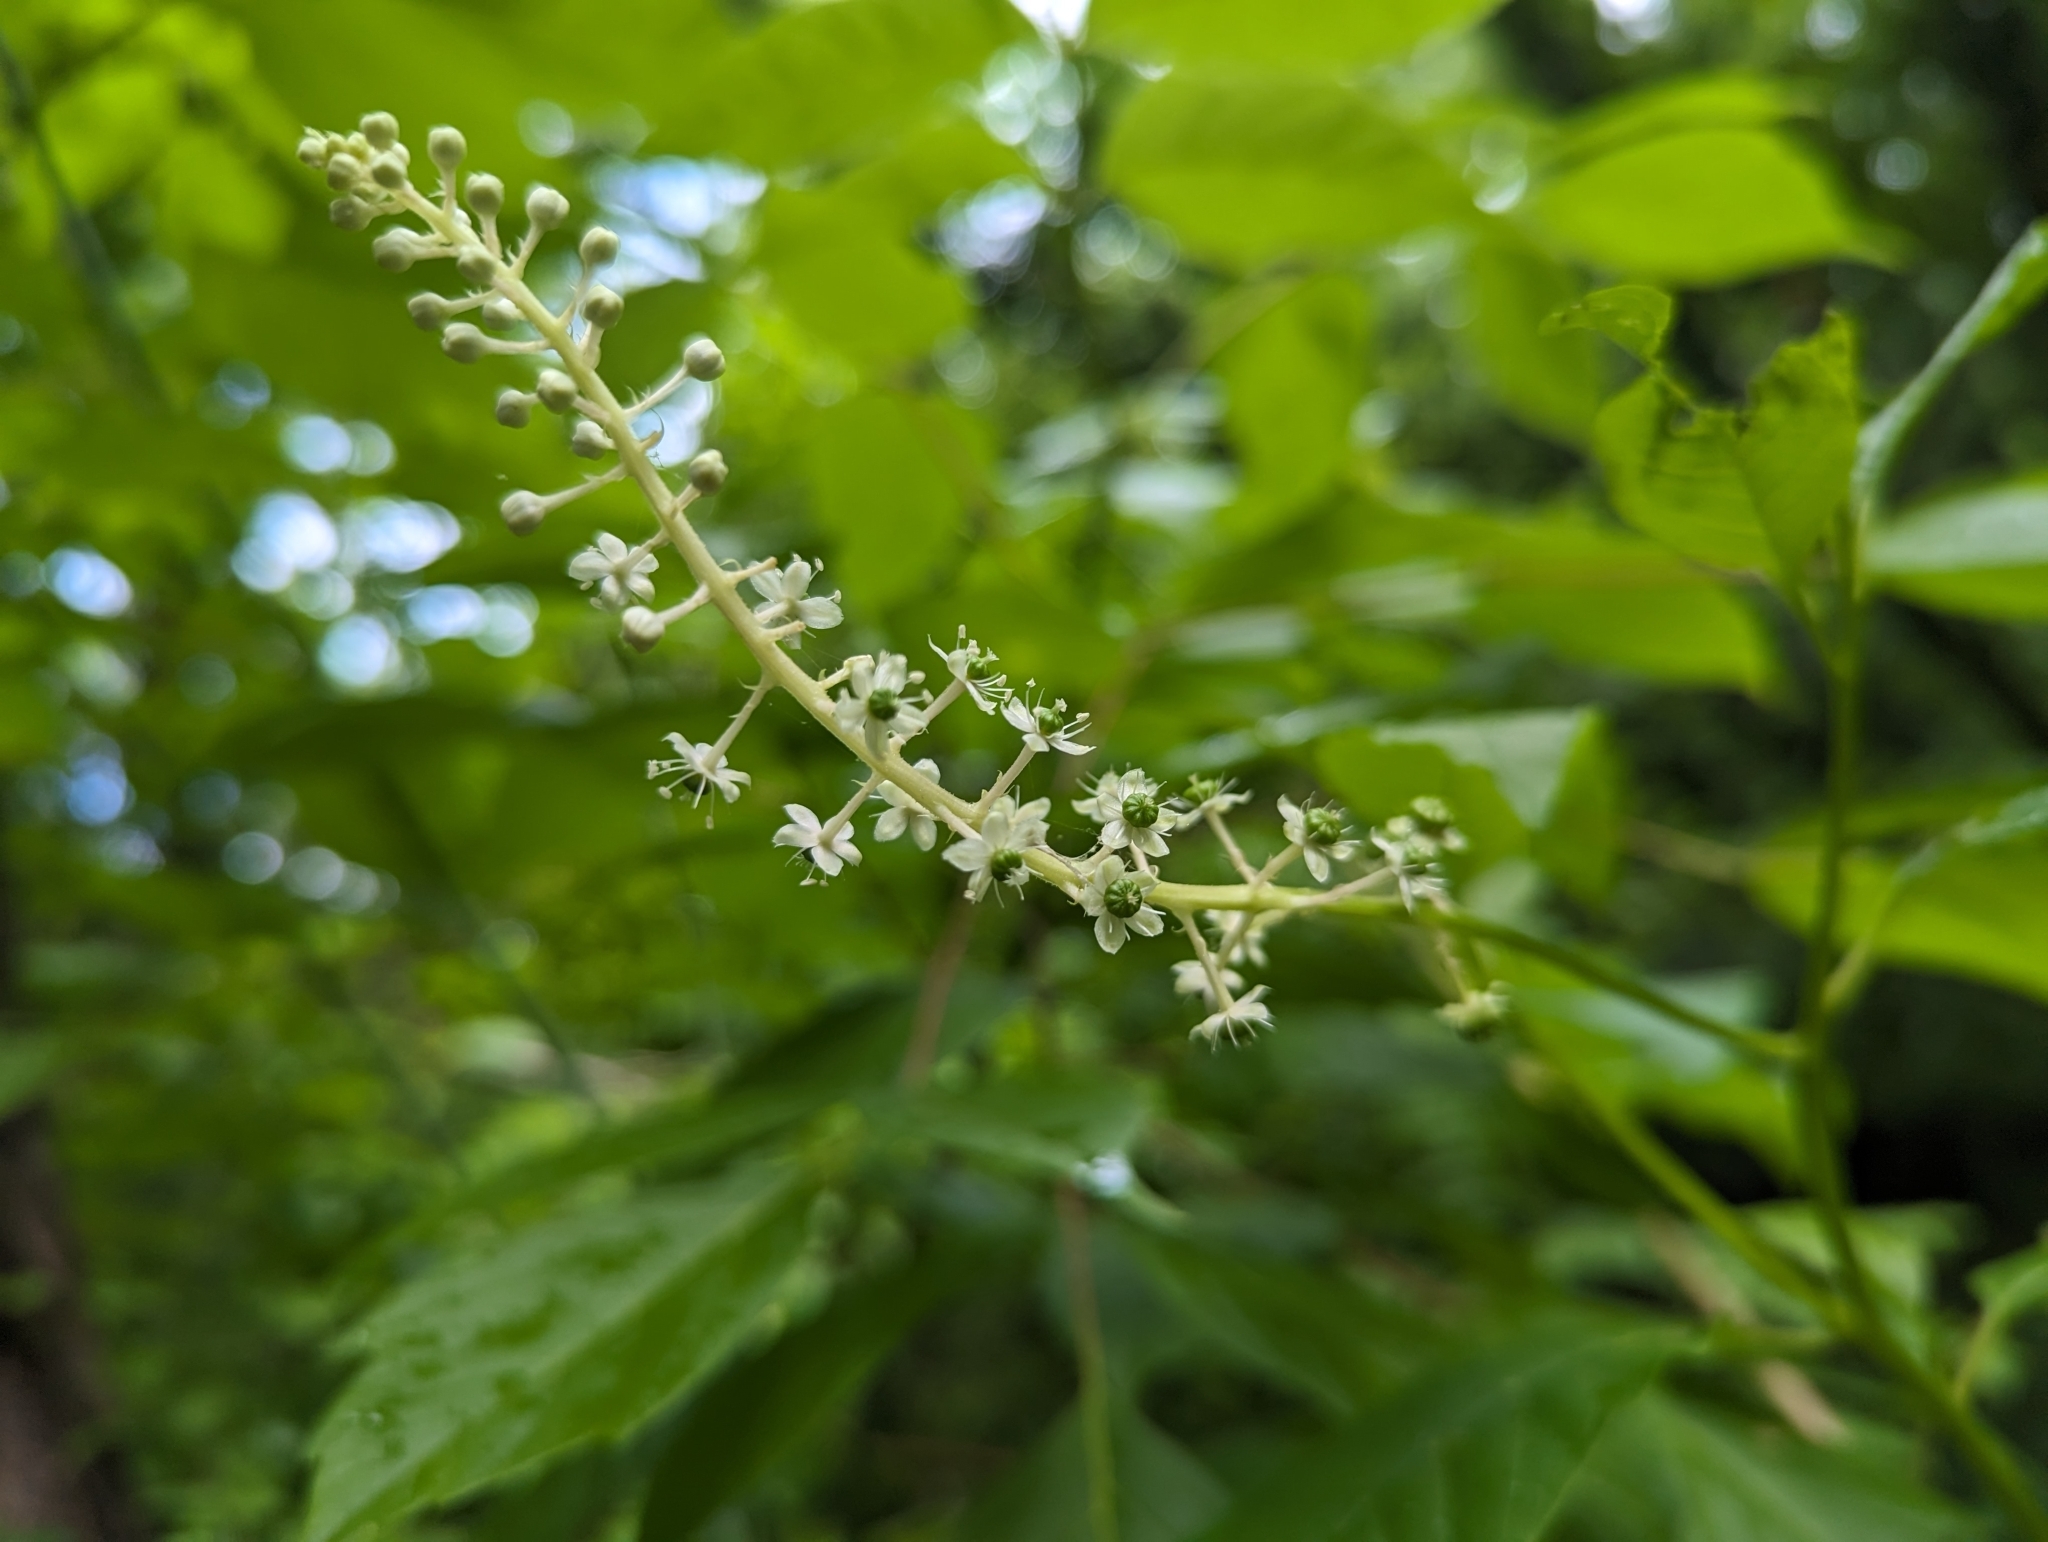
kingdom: Plantae
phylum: Tracheophyta
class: Magnoliopsida
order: Caryophyllales
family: Phytolaccaceae
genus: Phytolacca
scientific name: Phytolacca americana
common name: American pokeweed
